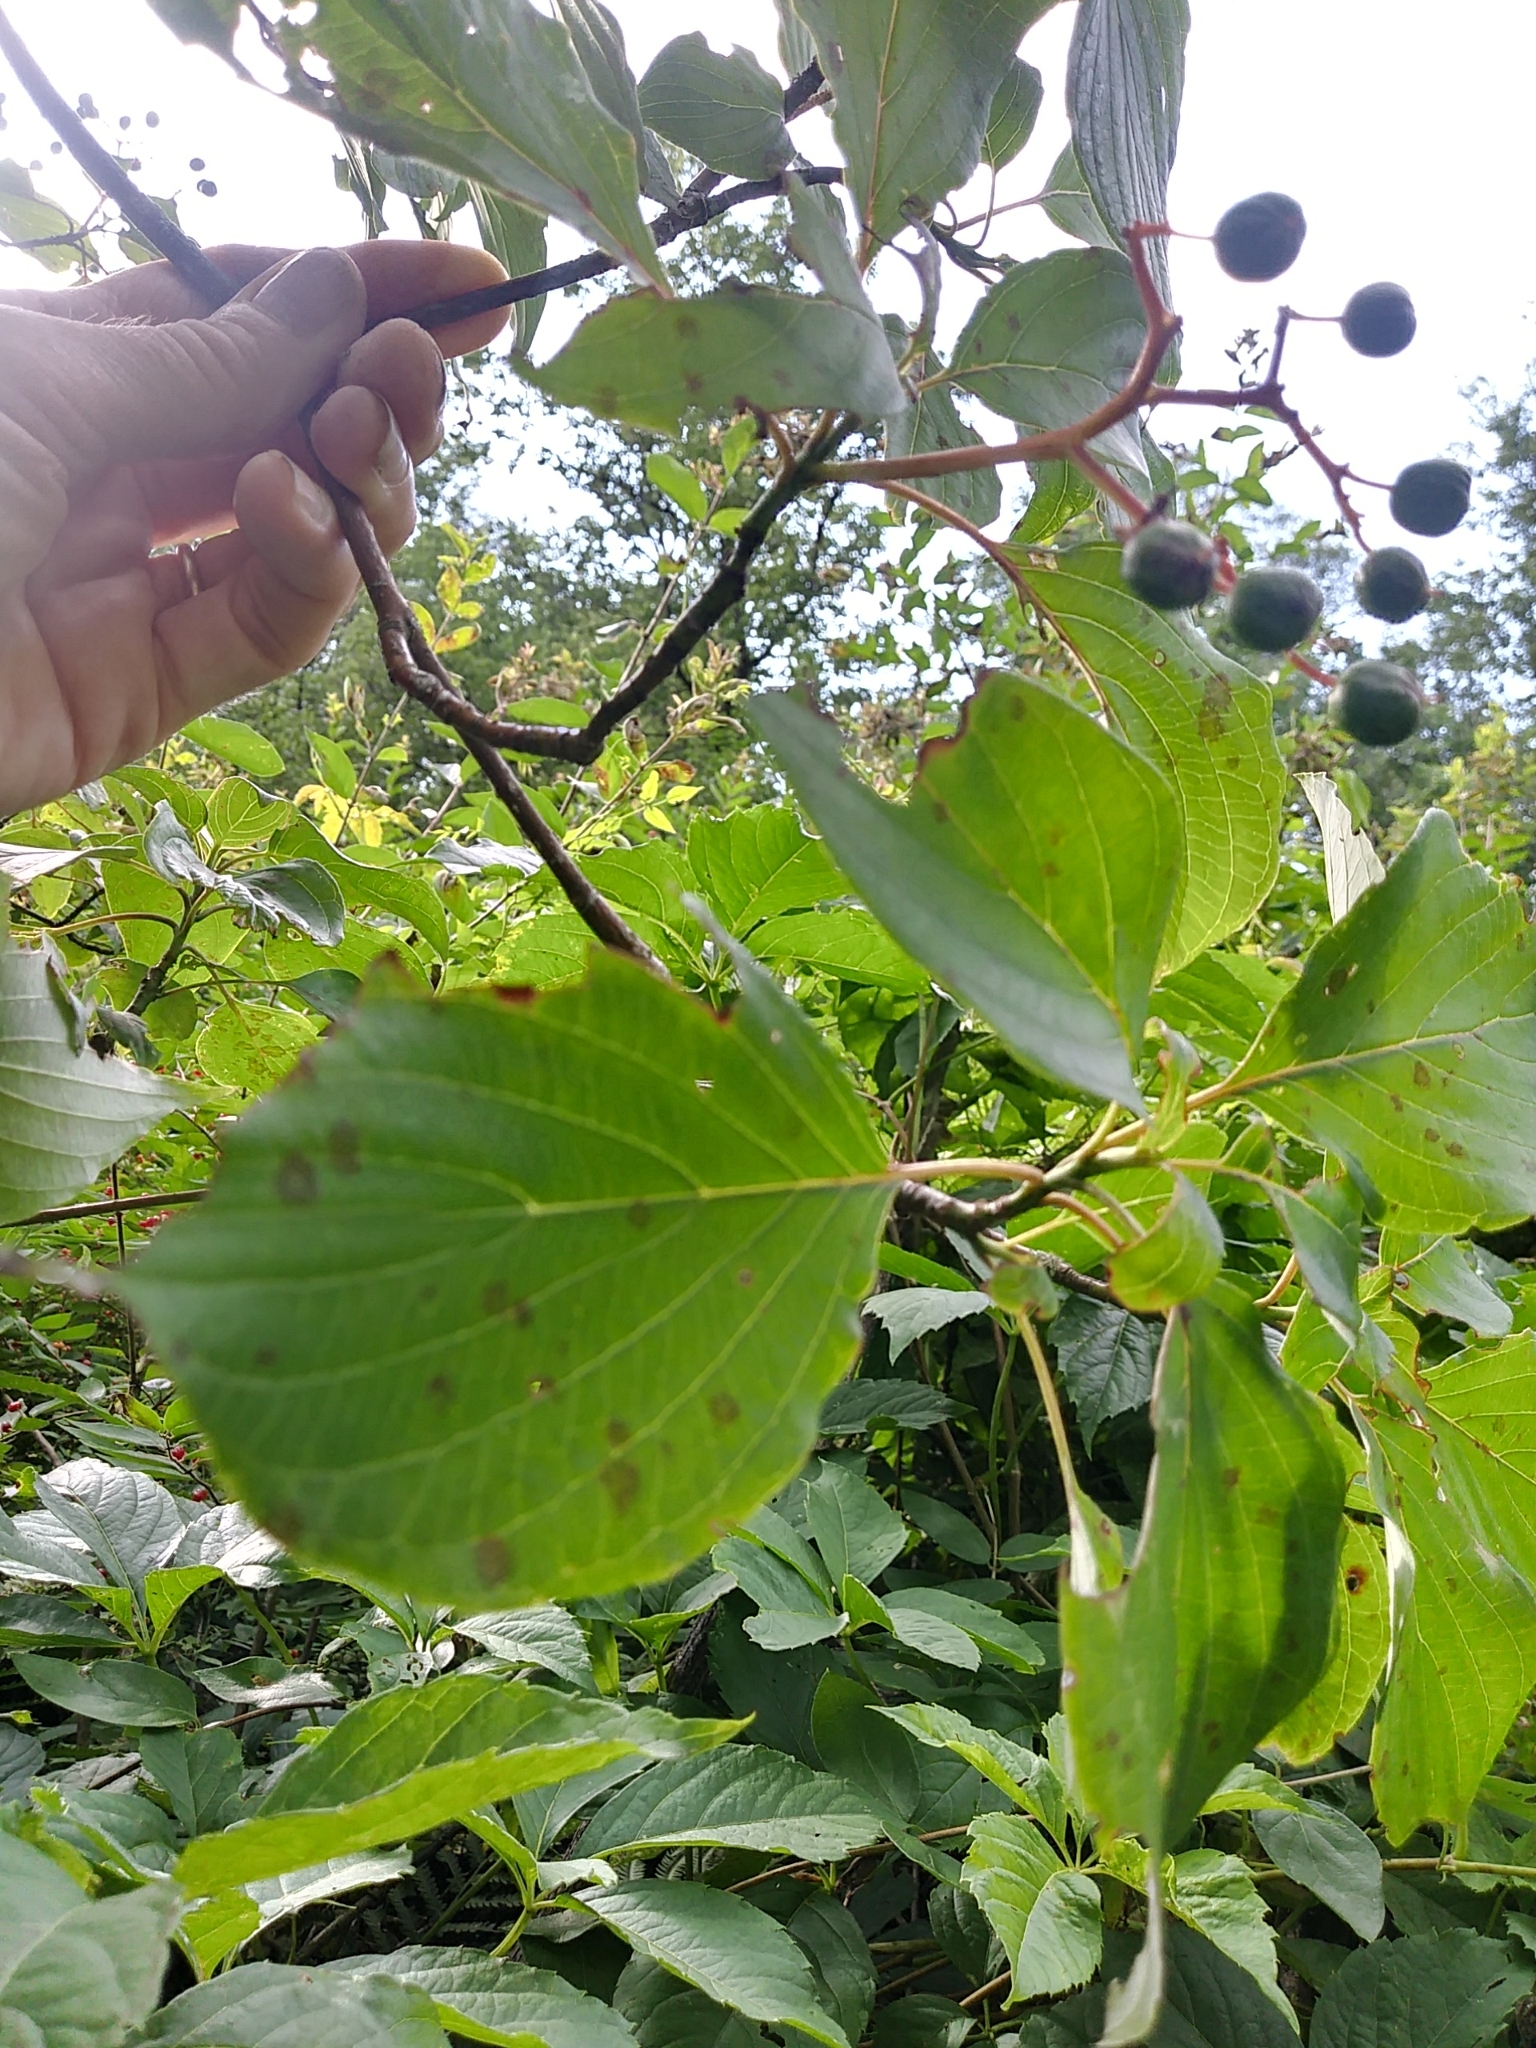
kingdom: Plantae
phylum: Tracheophyta
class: Magnoliopsida
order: Cornales
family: Cornaceae
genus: Cornus
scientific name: Cornus alternifolia
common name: Pagoda dogwood
